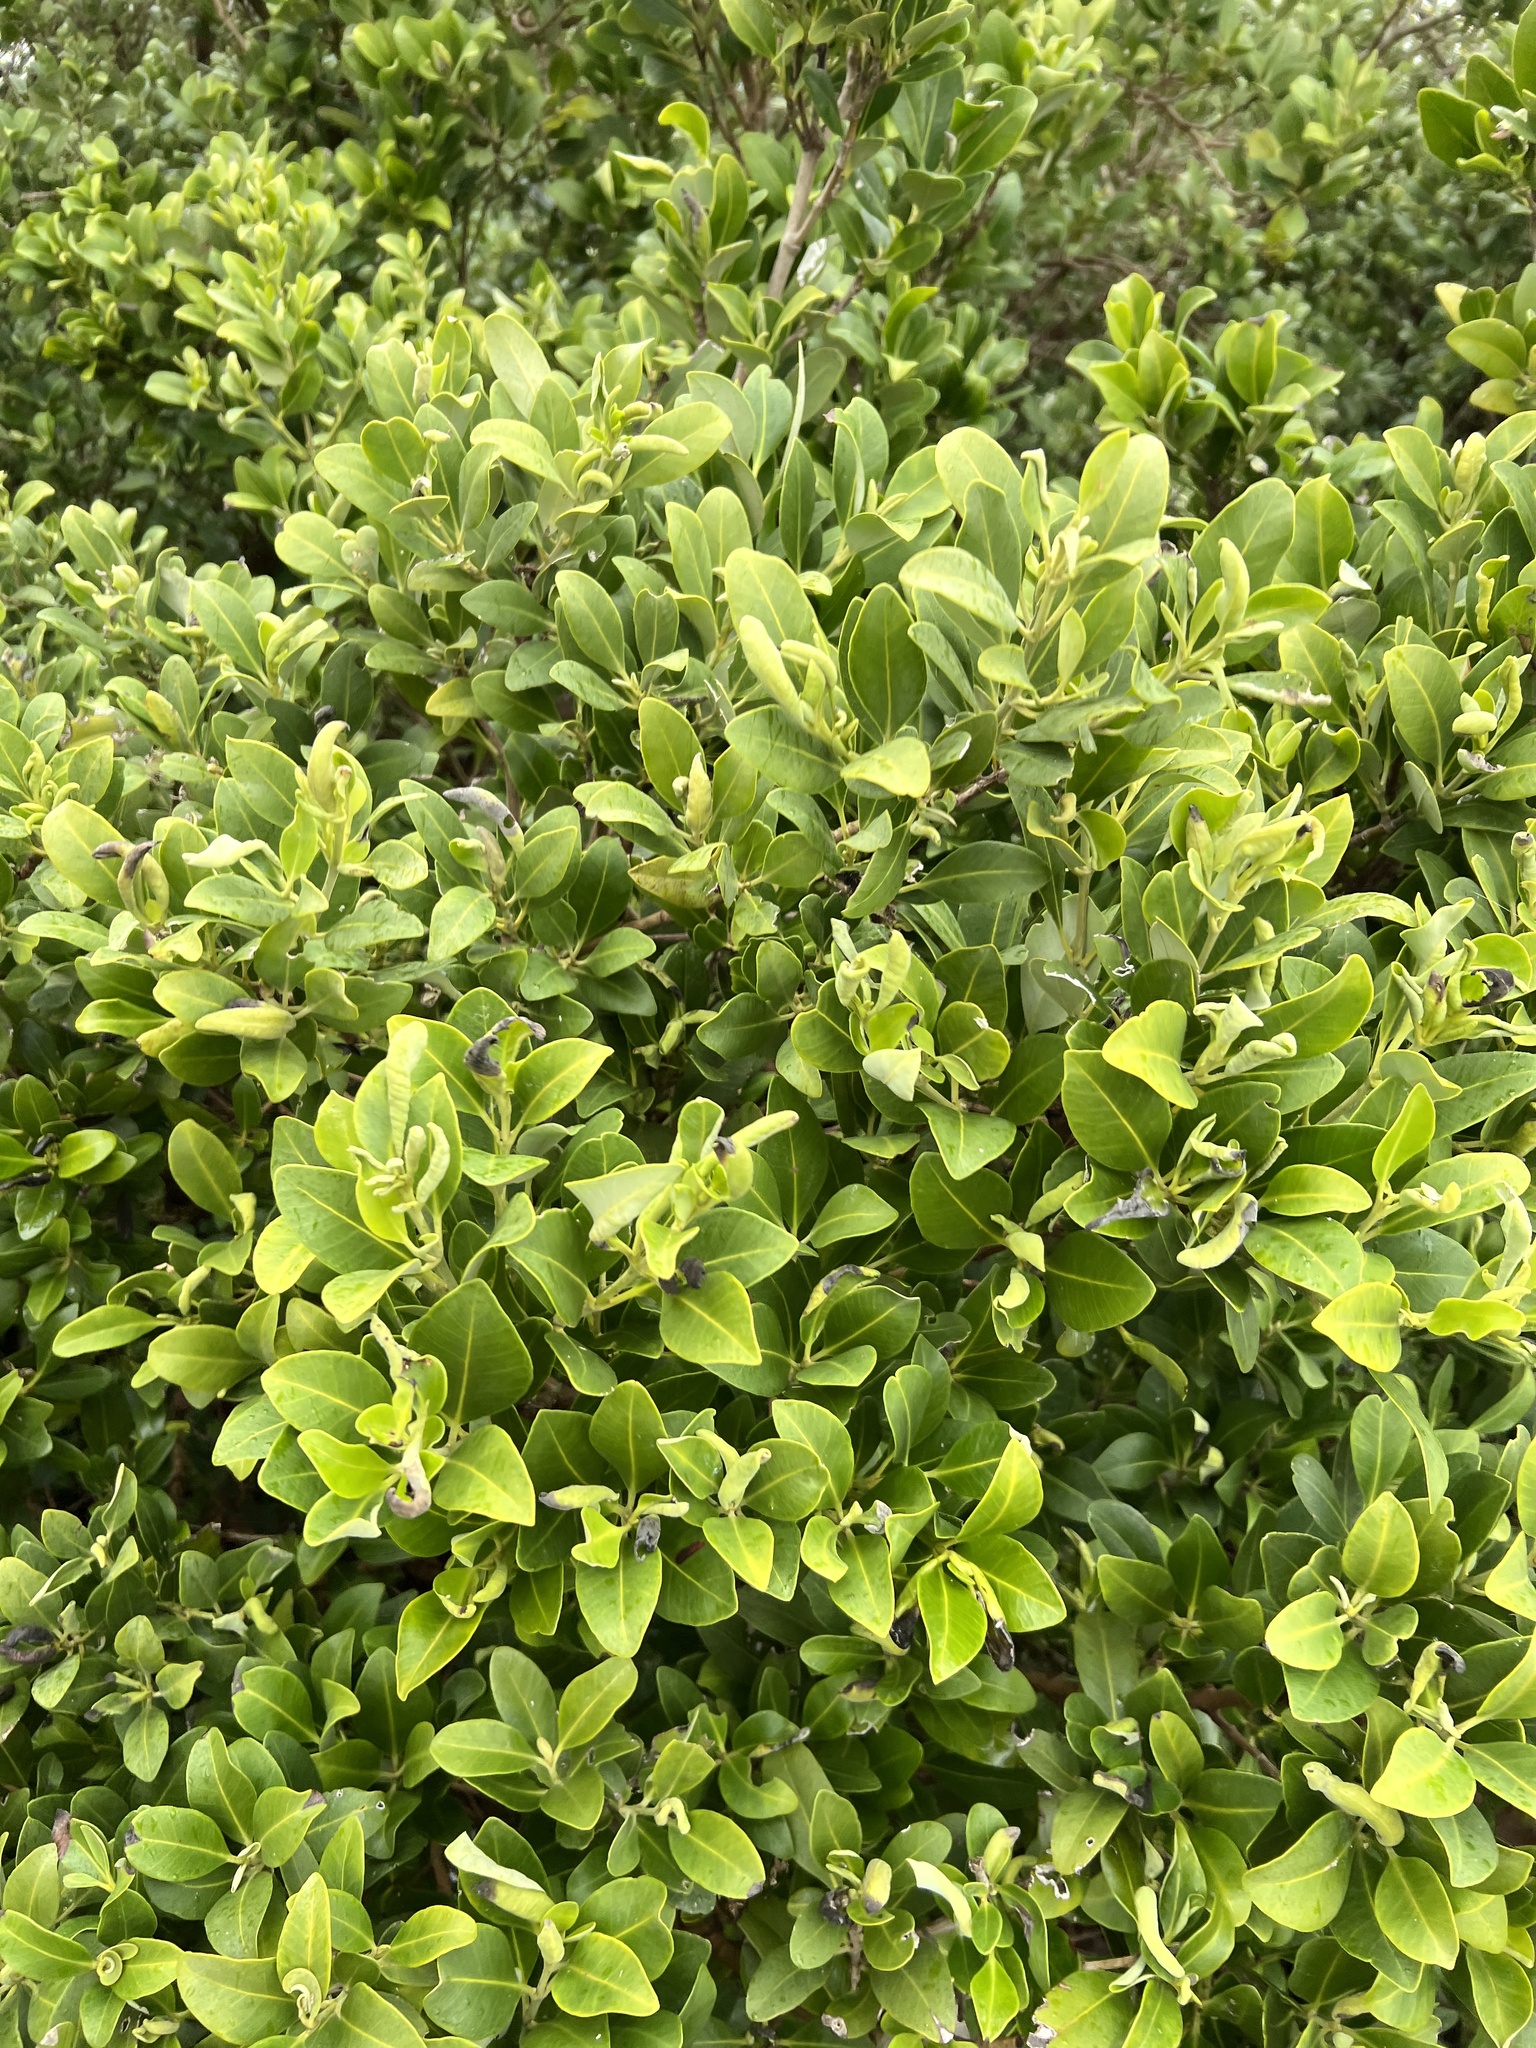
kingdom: Plantae
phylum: Tracheophyta
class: Magnoliopsida
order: Lamiales
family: Acanthaceae
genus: Avicennia
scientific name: Avicennia germinans
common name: Black mangrove
